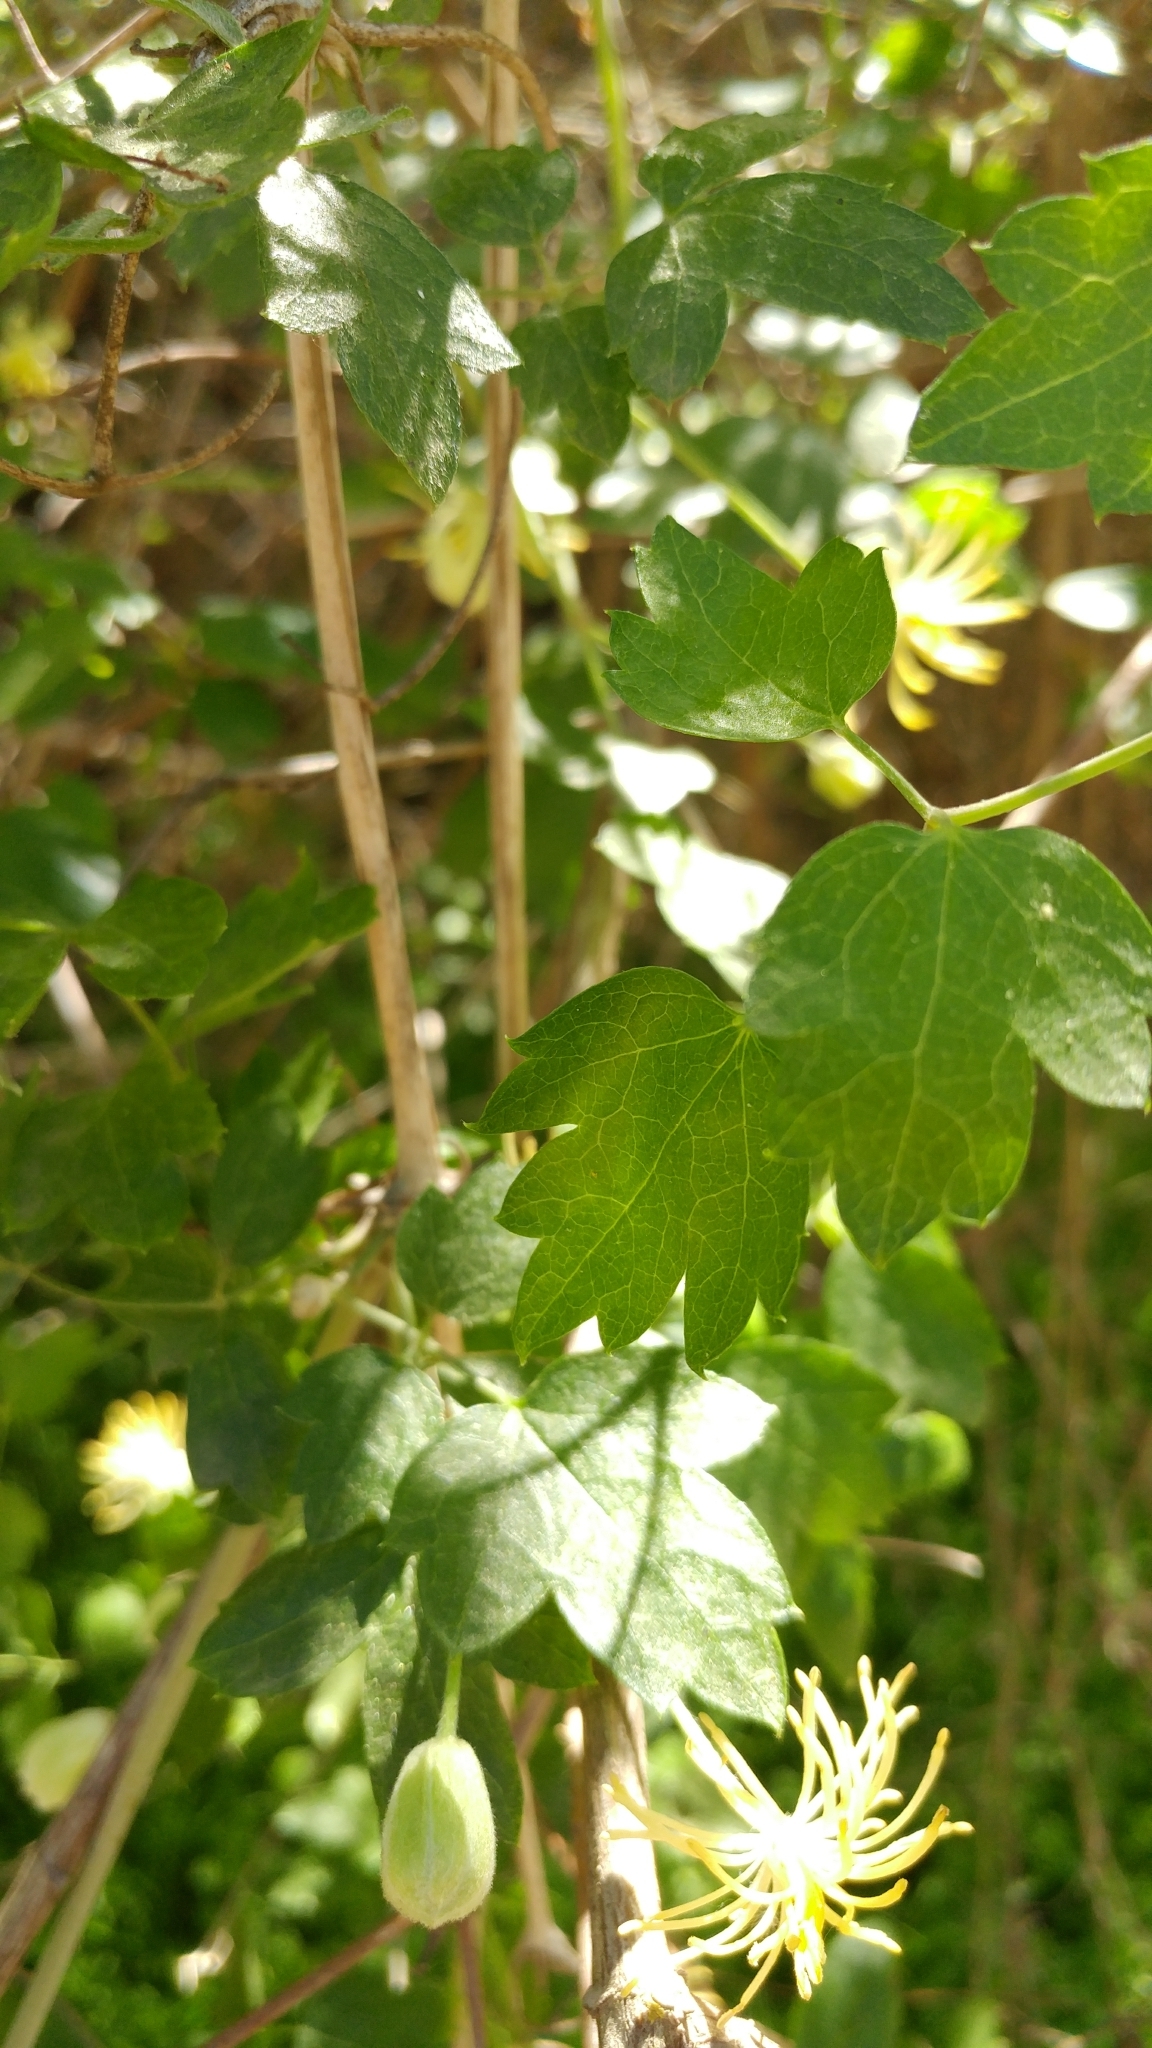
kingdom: Plantae
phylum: Tracheophyta
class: Magnoliopsida
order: Ranunculales
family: Ranunculaceae
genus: Clematis
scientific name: Clematis pauciflora
